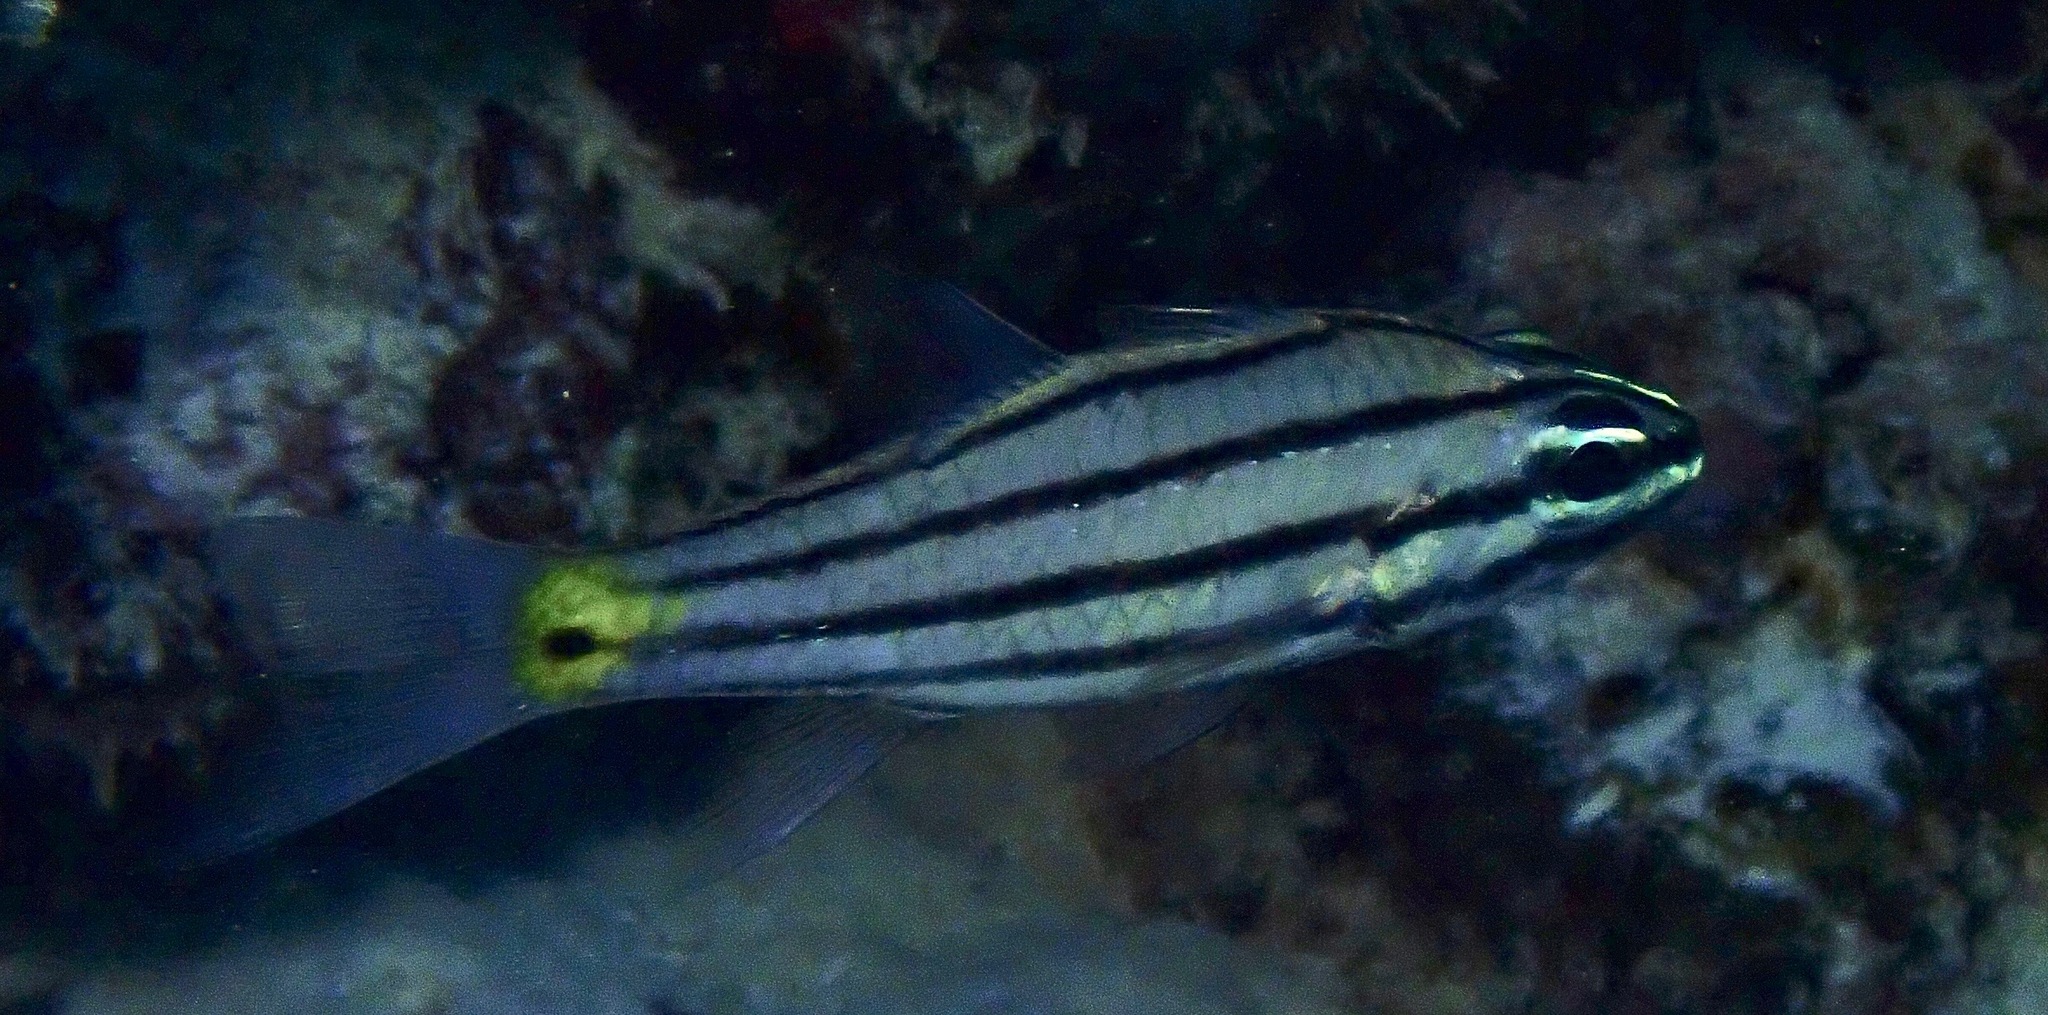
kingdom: Animalia
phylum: Chordata
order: Perciformes
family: Apogonidae
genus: Cheilodipterus
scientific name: Cheilodipterus quinquelineatus
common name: Five-lined cardinalfish
